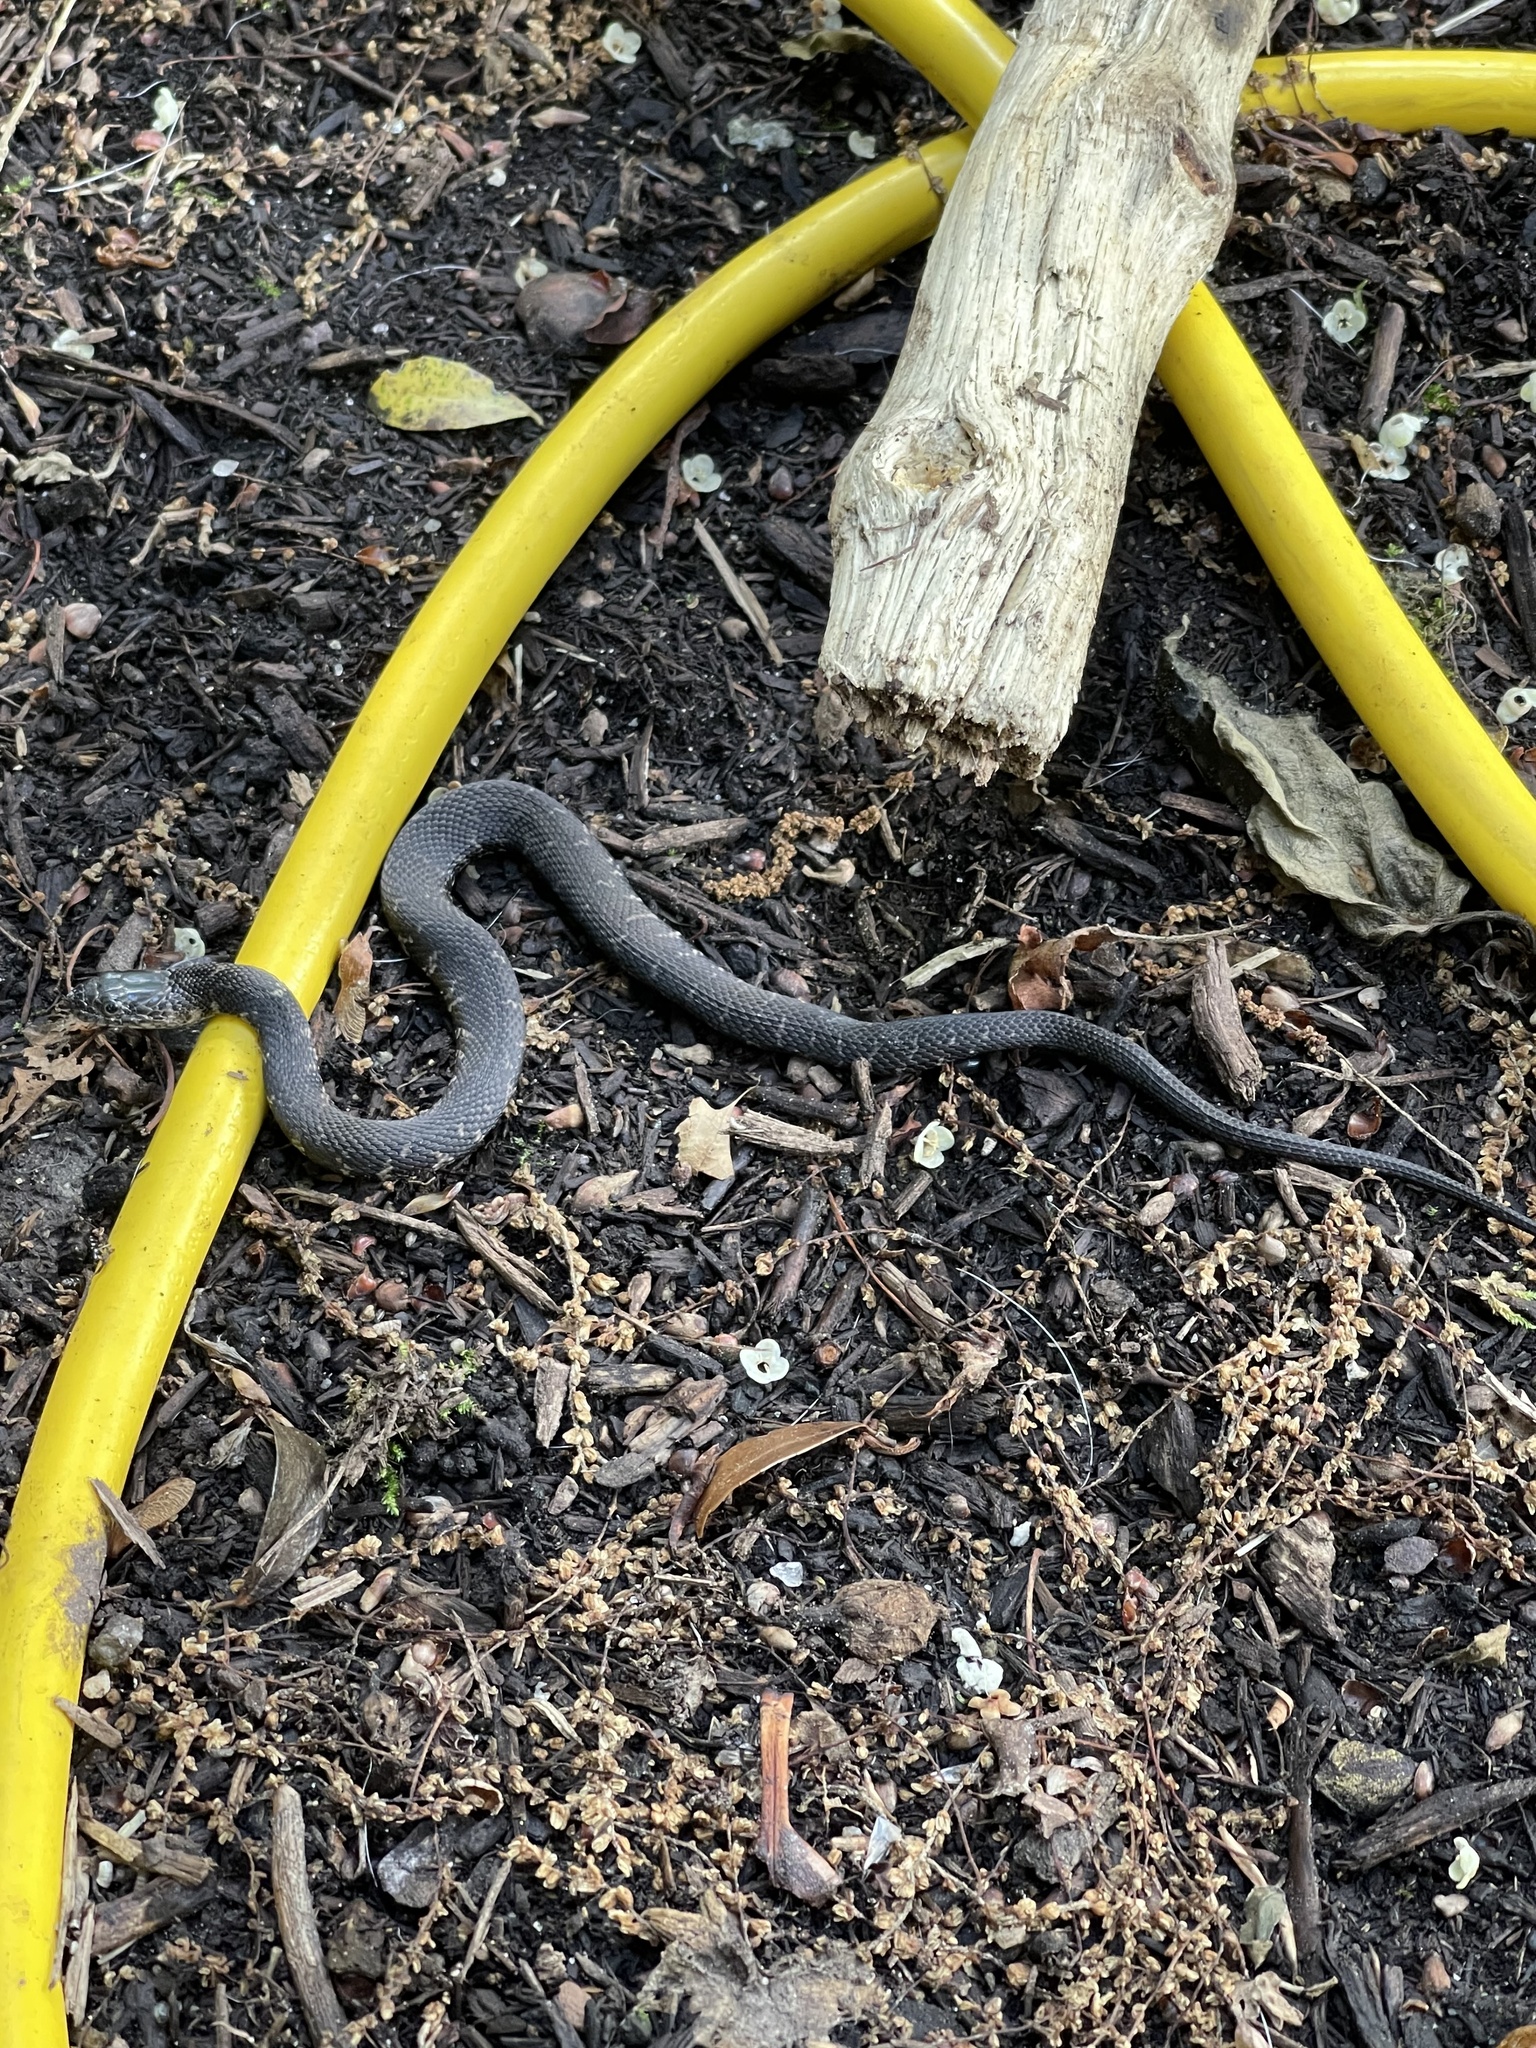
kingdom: Animalia
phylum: Chordata
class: Squamata
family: Colubridae
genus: Nerodia
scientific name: Nerodia sipedon
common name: Northern water snake
